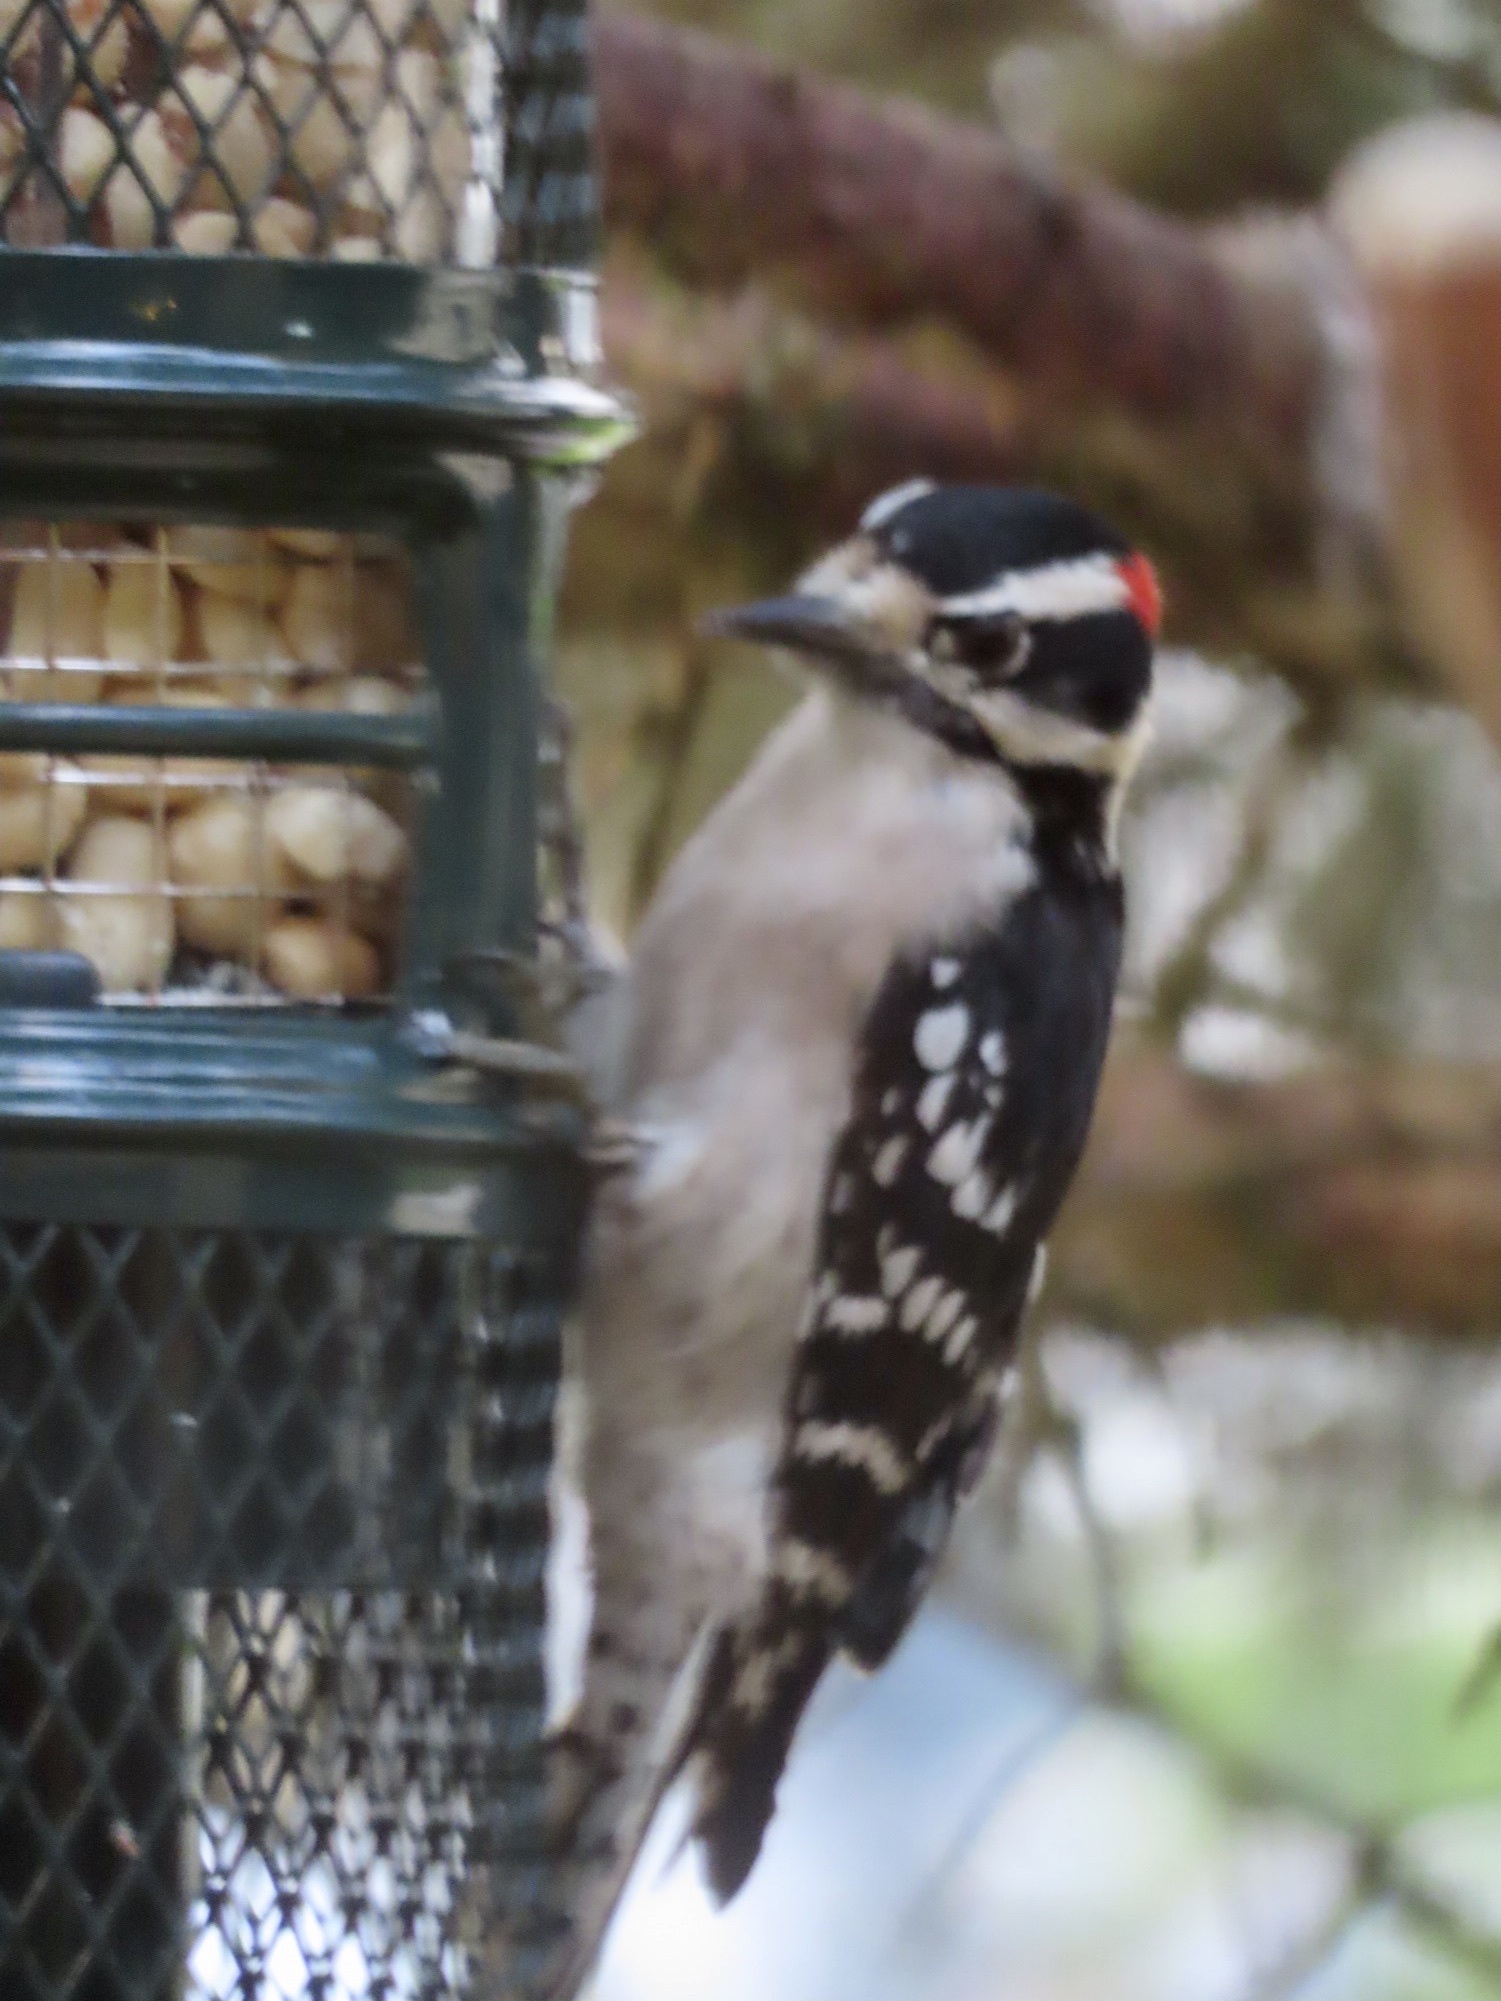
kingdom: Animalia
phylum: Chordata
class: Aves
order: Piciformes
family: Picidae
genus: Dryobates
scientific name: Dryobates pubescens
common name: Downy woodpecker
